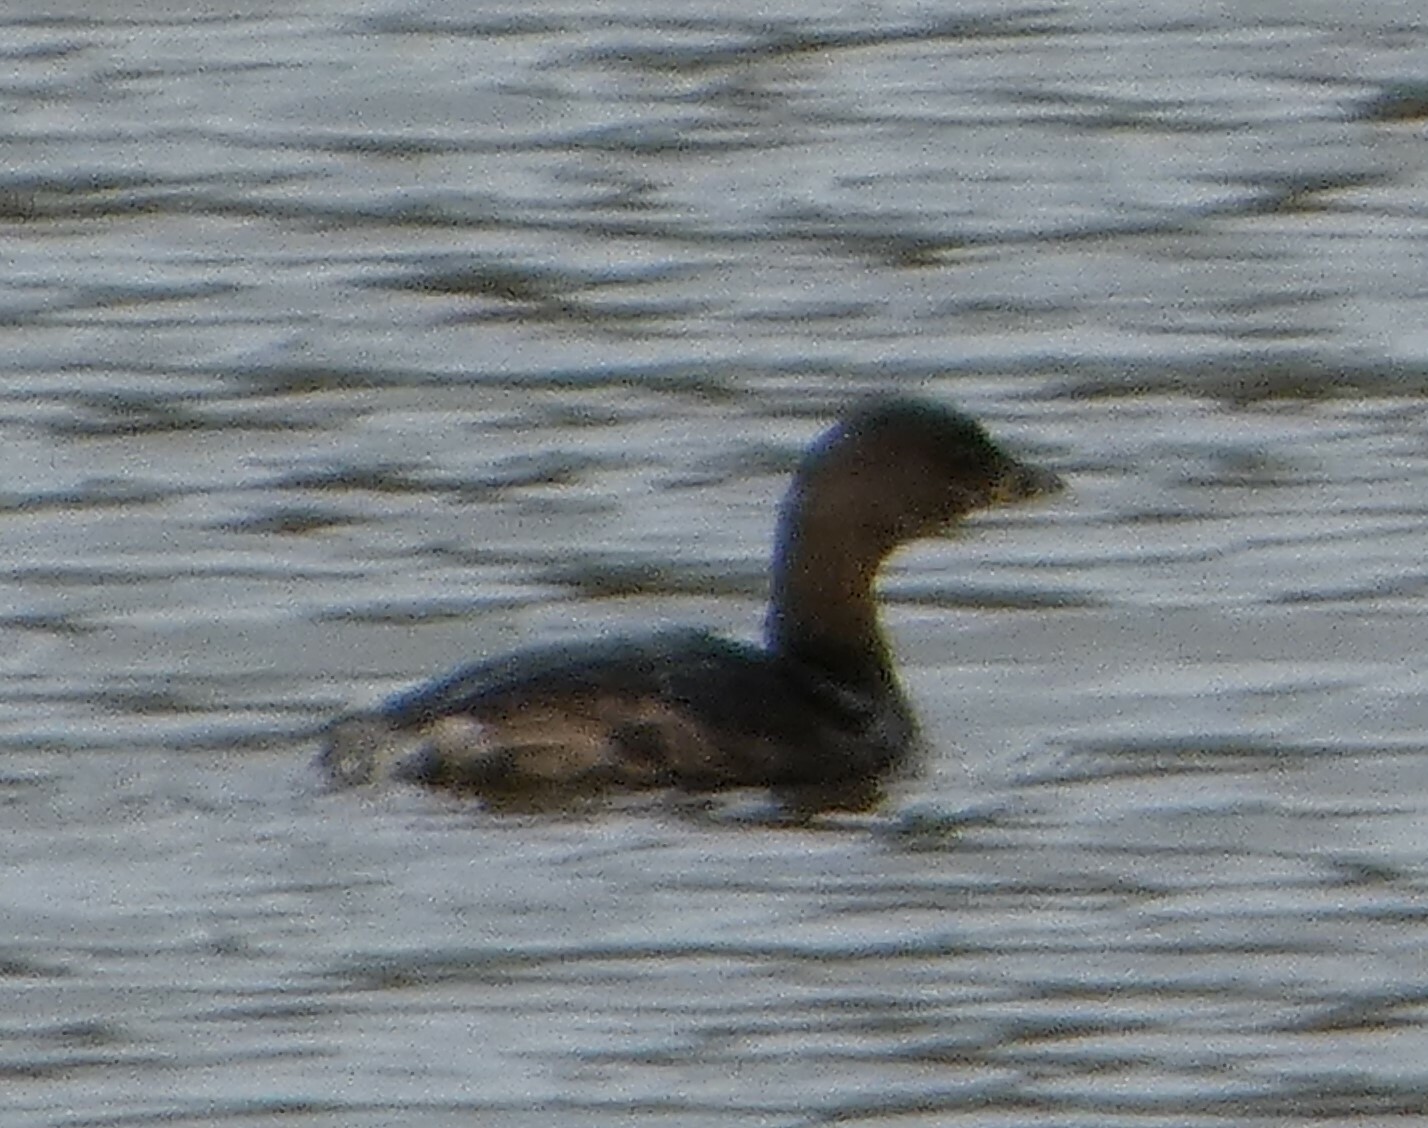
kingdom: Animalia
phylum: Chordata
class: Aves
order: Podicipediformes
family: Podicipedidae
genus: Podilymbus
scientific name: Podilymbus podiceps
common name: Pied-billed grebe
